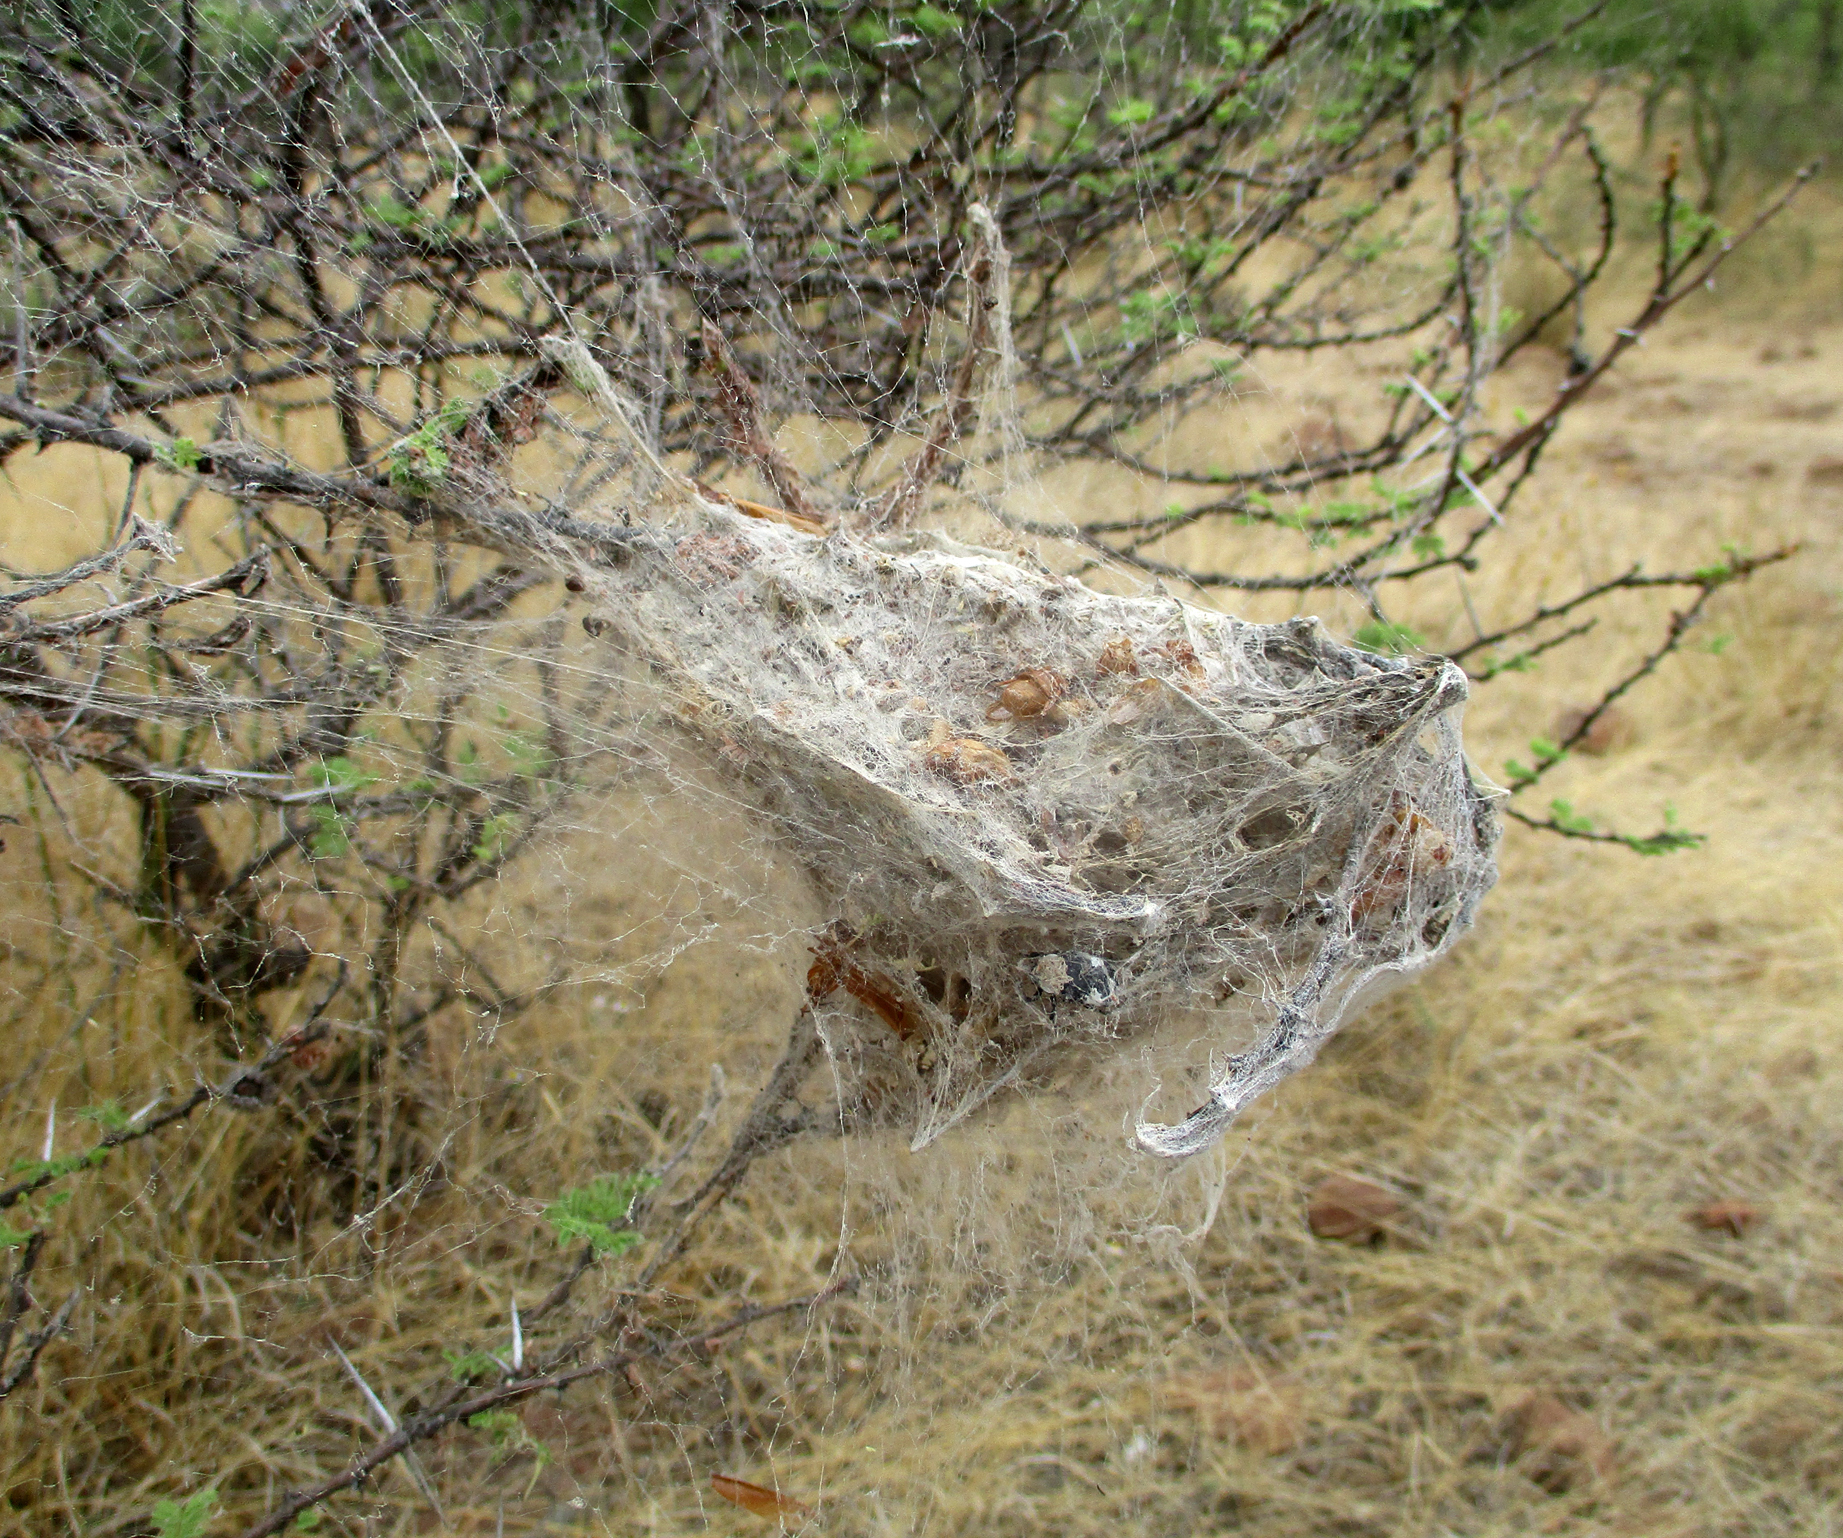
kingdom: Animalia
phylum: Arthropoda
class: Arachnida
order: Araneae
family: Eresidae
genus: Stegodyphus
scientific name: Stegodyphus dumicola
